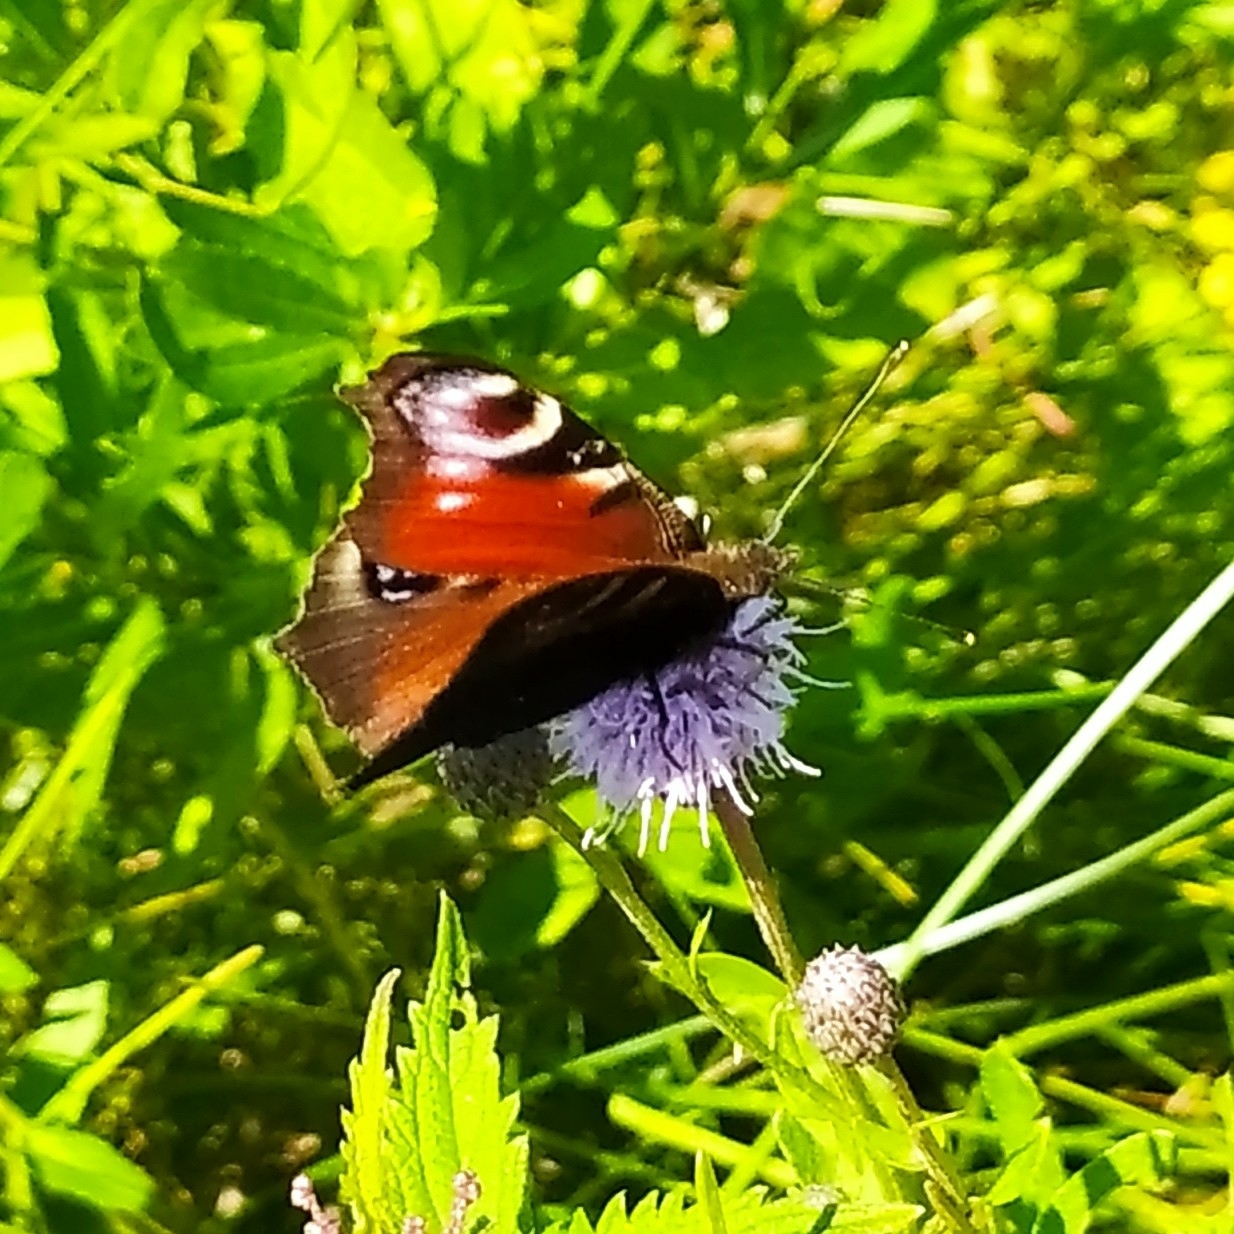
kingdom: Animalia
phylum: Arthropoda
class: Insecta
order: Lepidoptera
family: Nymphalidae
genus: Aglais
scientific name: Aglais io
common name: Peacock
